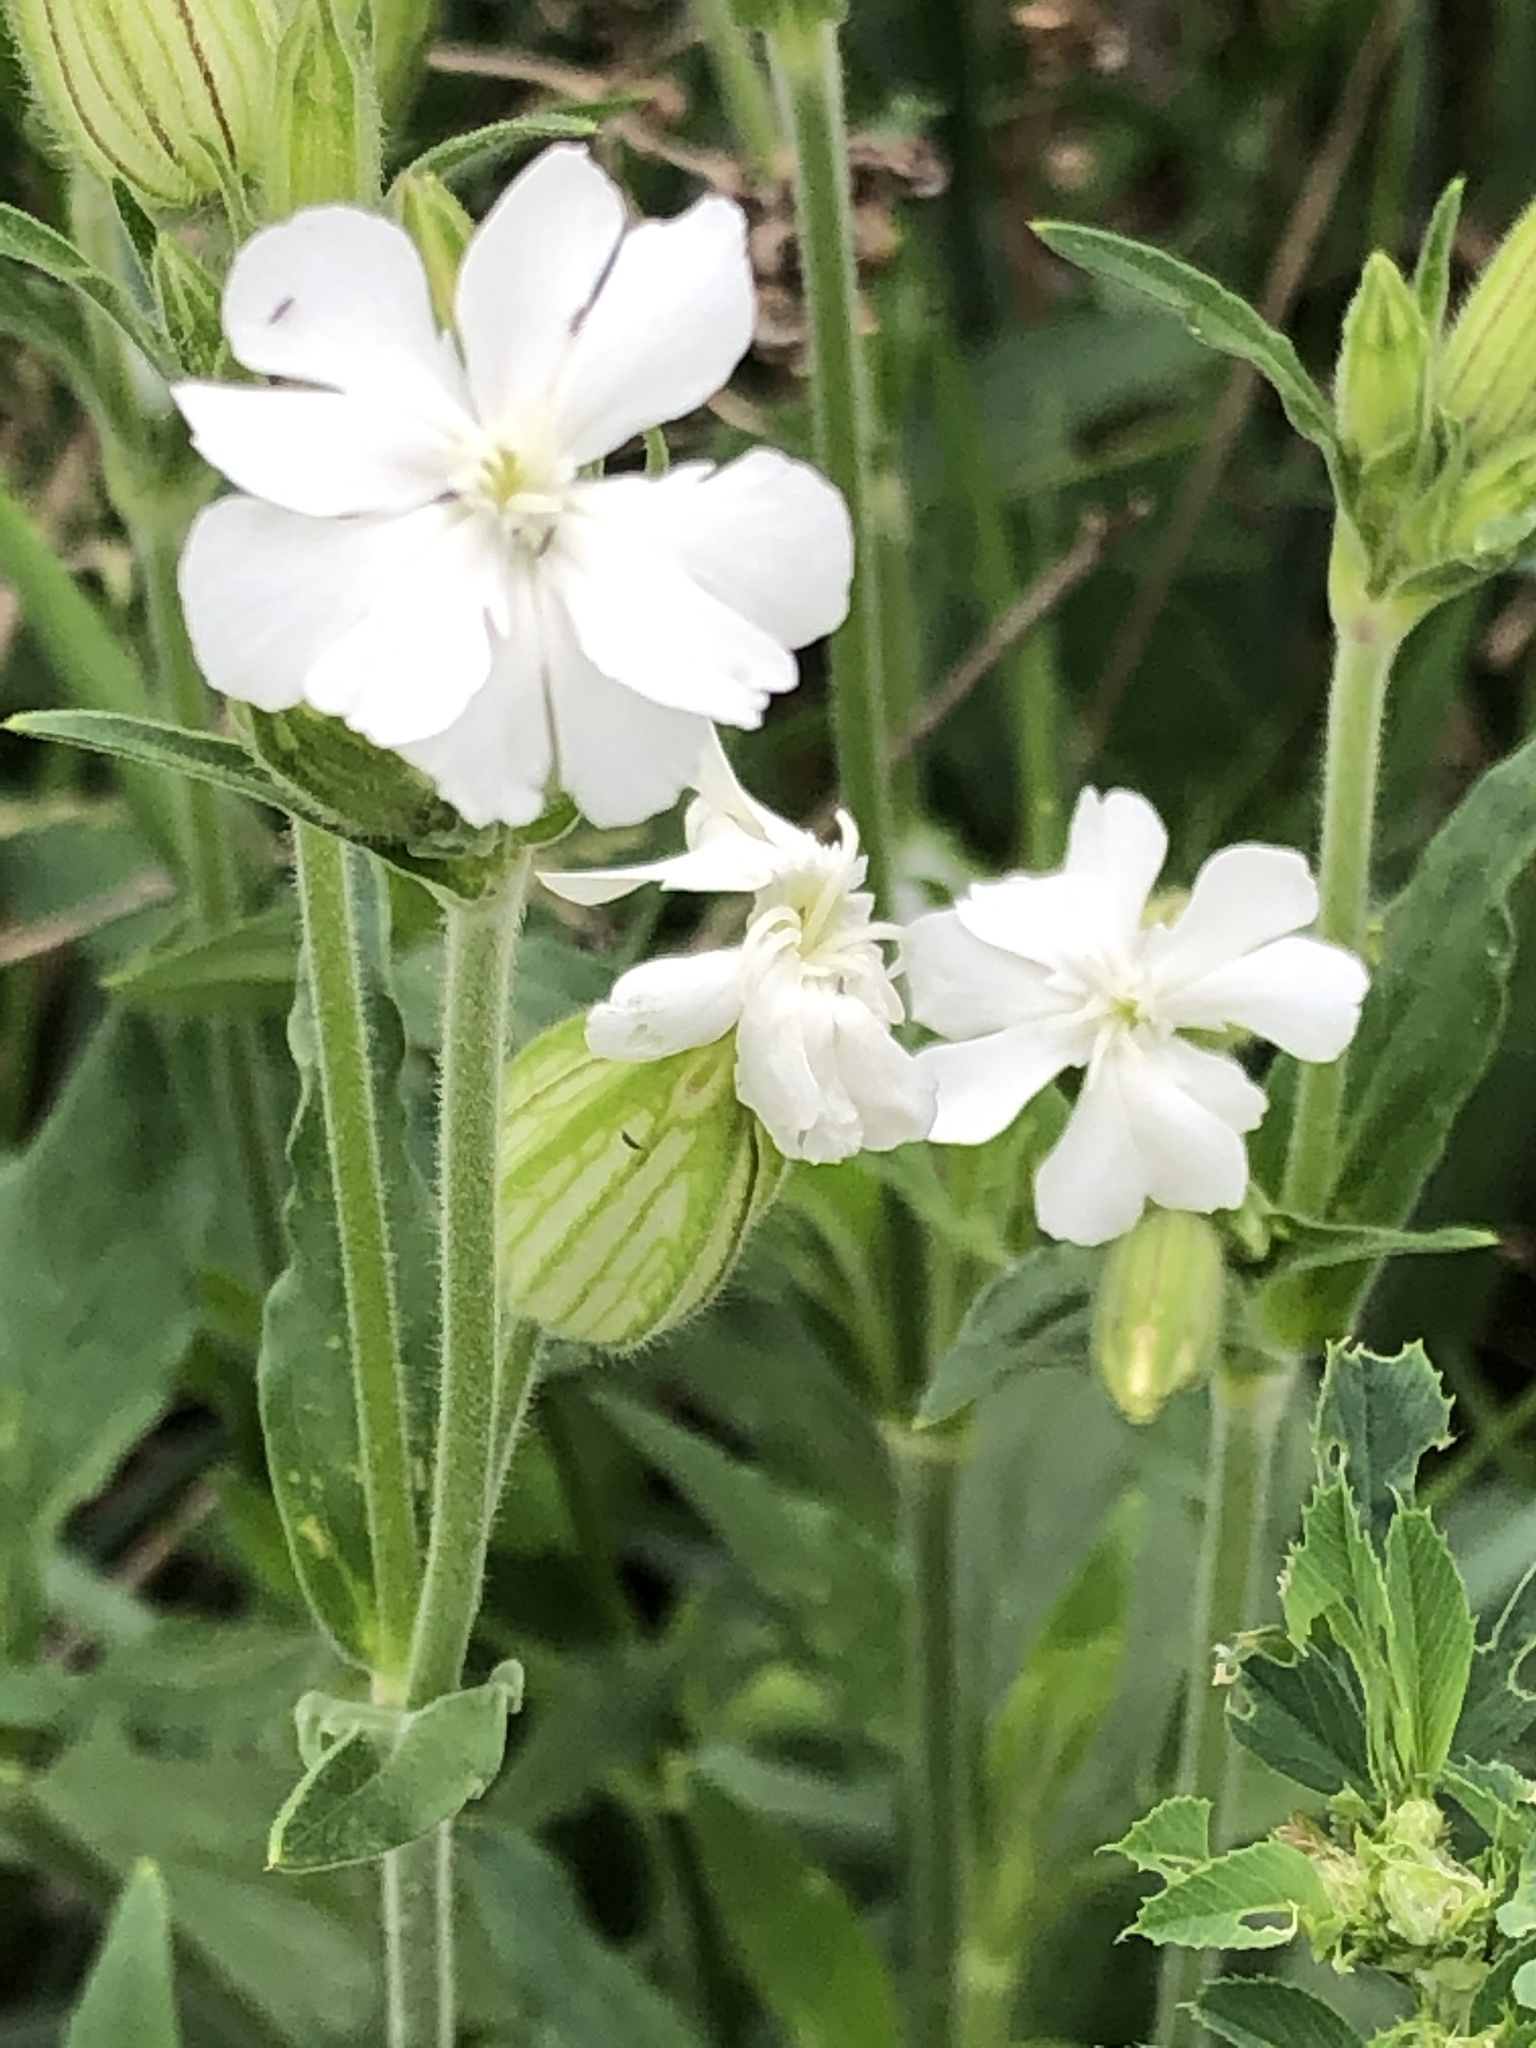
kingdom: Plantae
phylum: Tracheophyta
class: Magnoliopsida
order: Caryophyllales
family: Caryophyllaceae
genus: Silene
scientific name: Silene latifolia
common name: White campion
